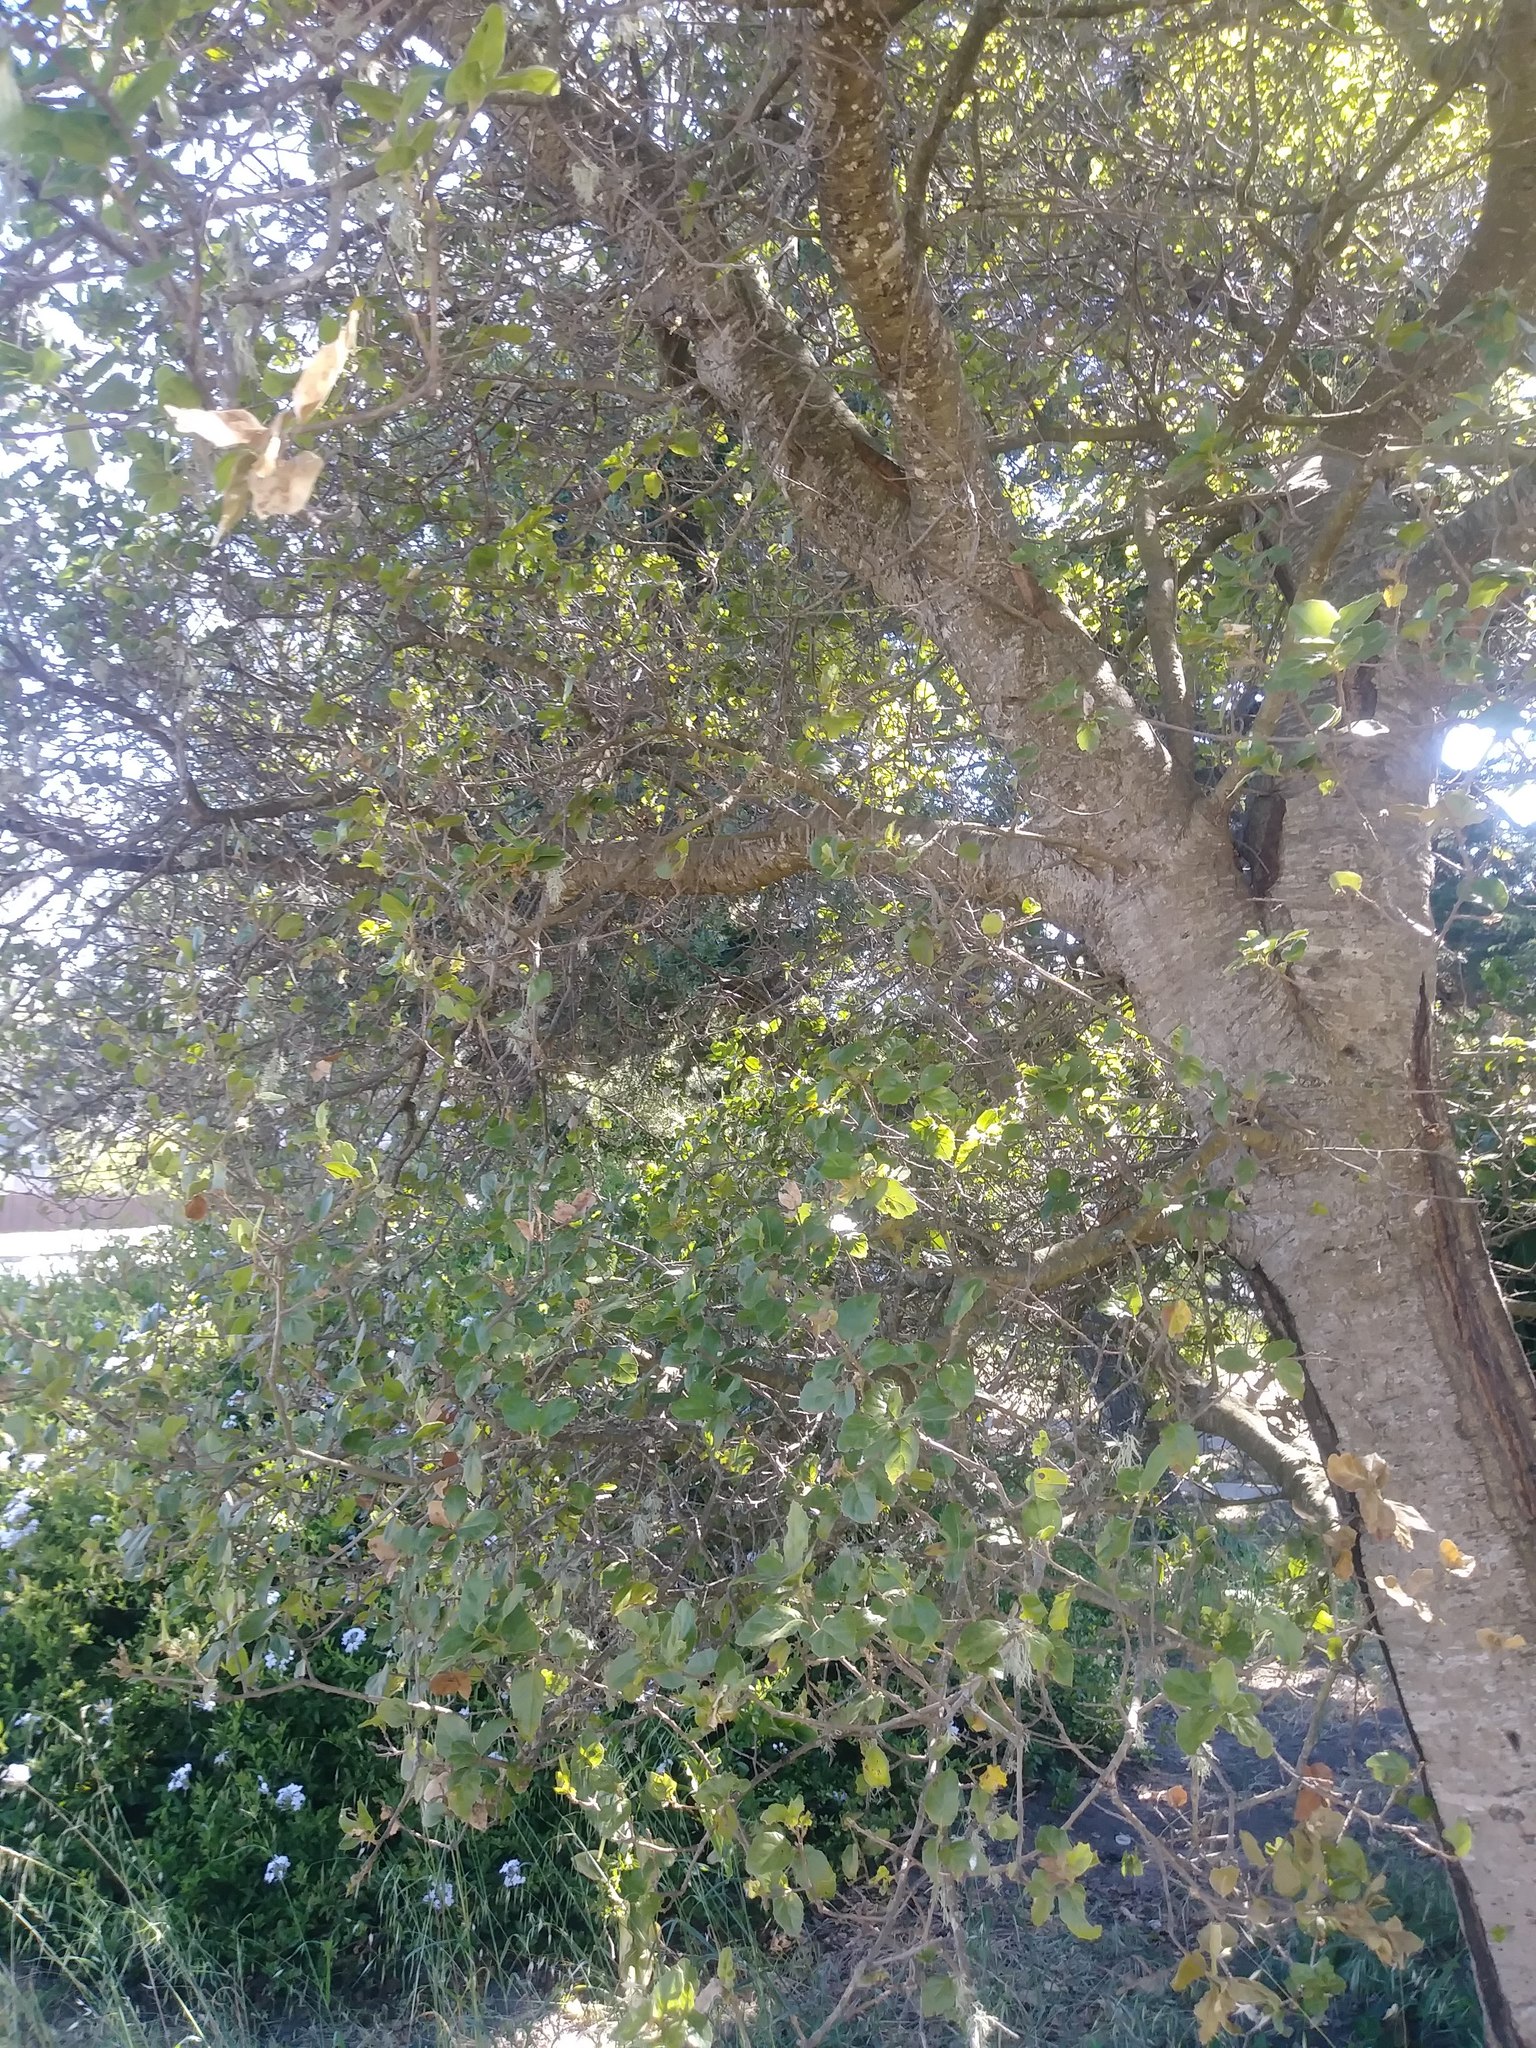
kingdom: Plantae
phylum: Tracheophyta
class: Magnoliopsida
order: Fagales
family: Fagaceae
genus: Quercus
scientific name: Quercus agrifolia
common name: California live oak
